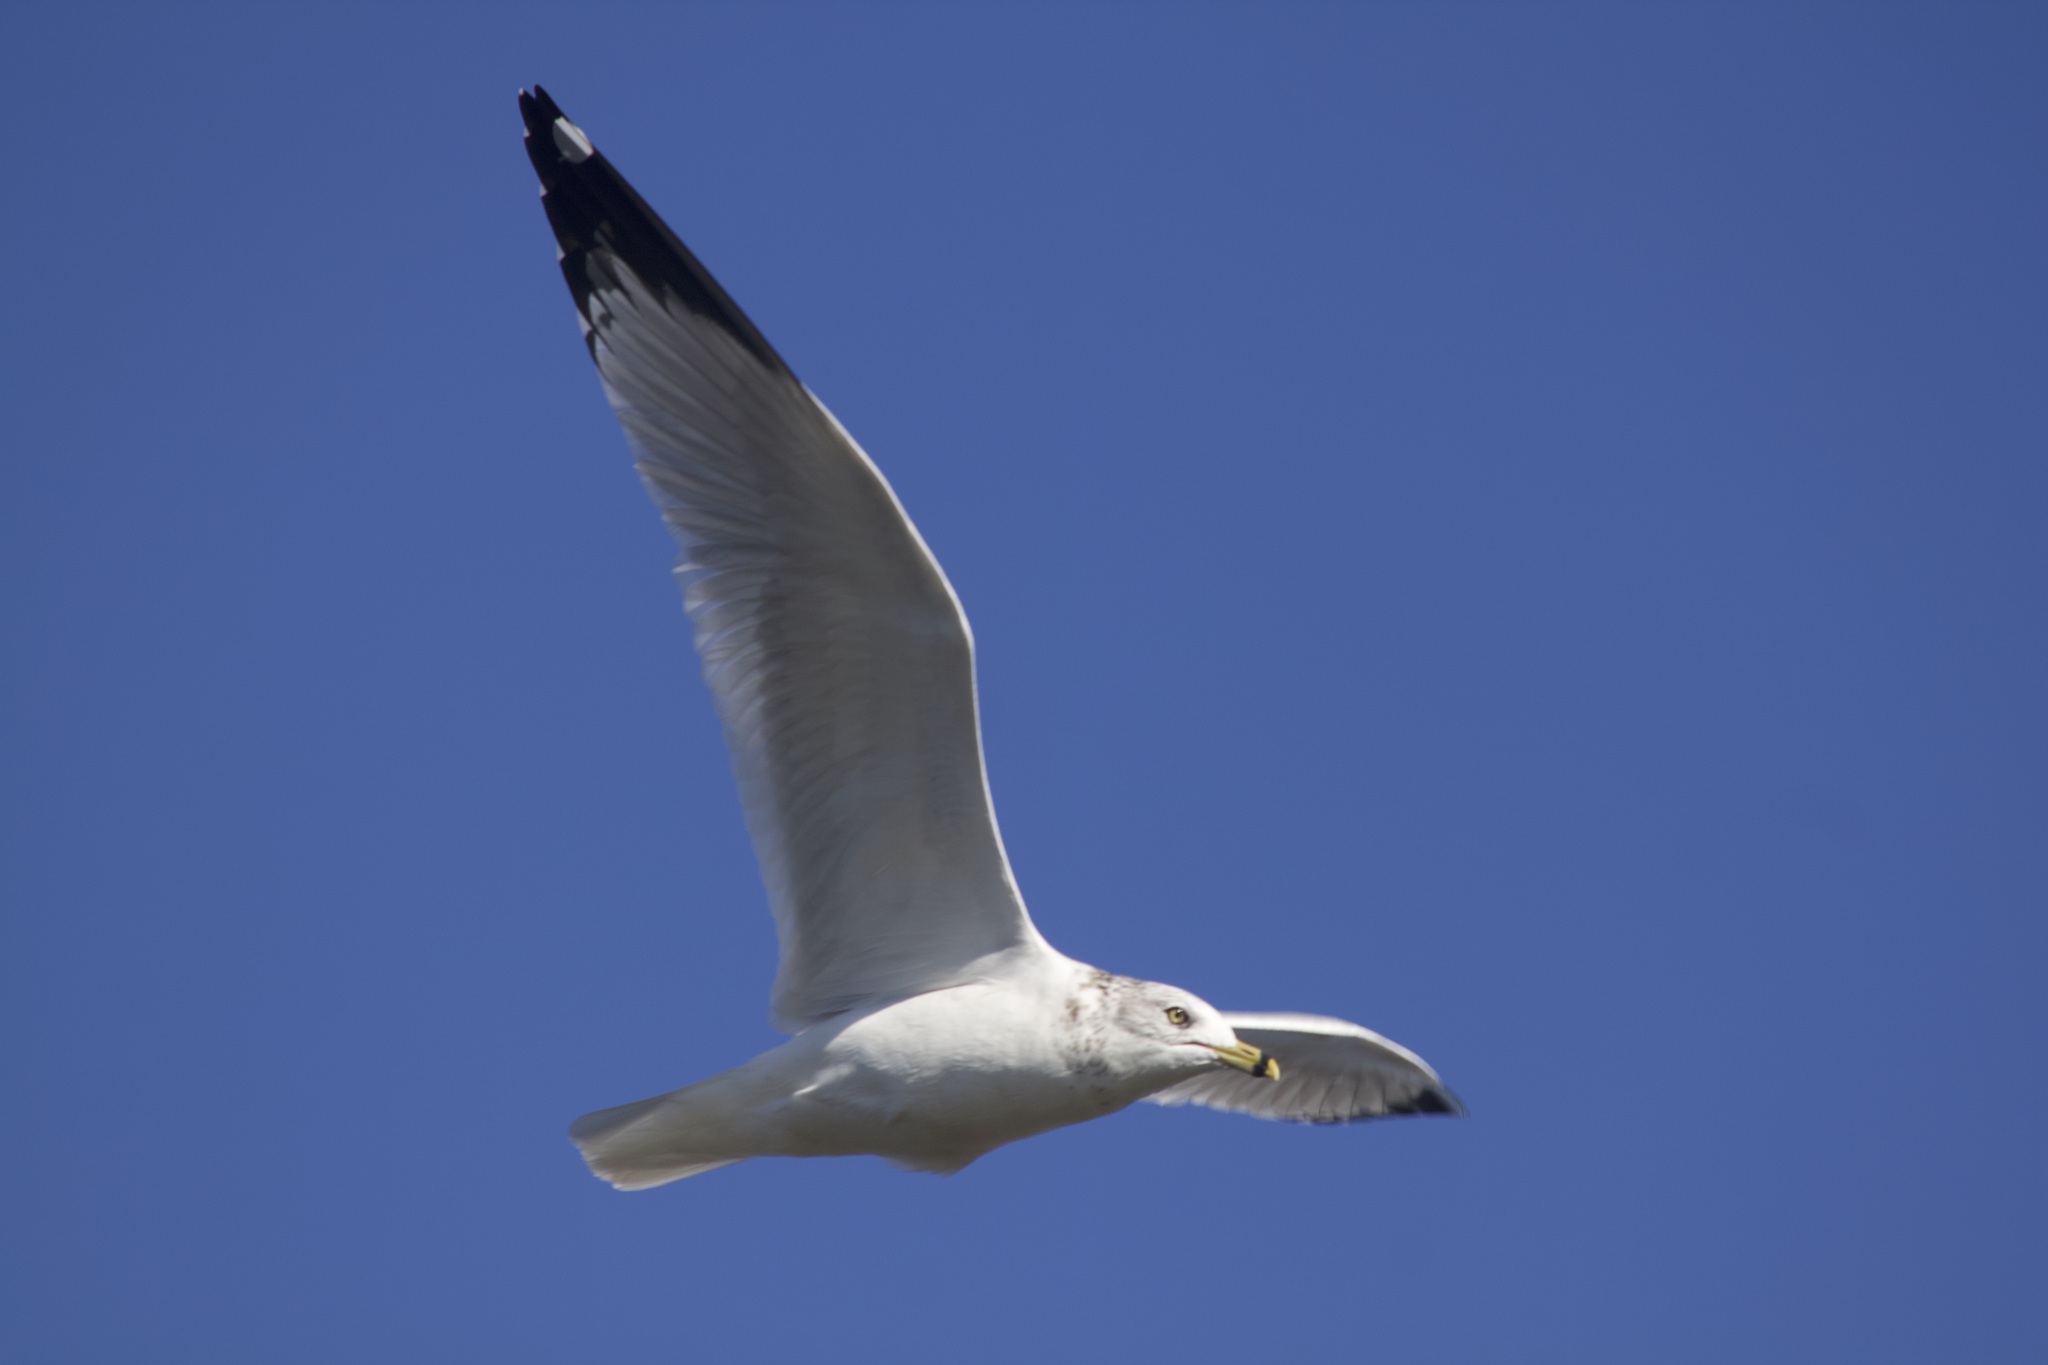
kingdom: Animalia
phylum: Chordata
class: Aves
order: Charadriiformes
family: Laridae
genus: Larus
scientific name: Larus delawarensis
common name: Ring-billed gull
